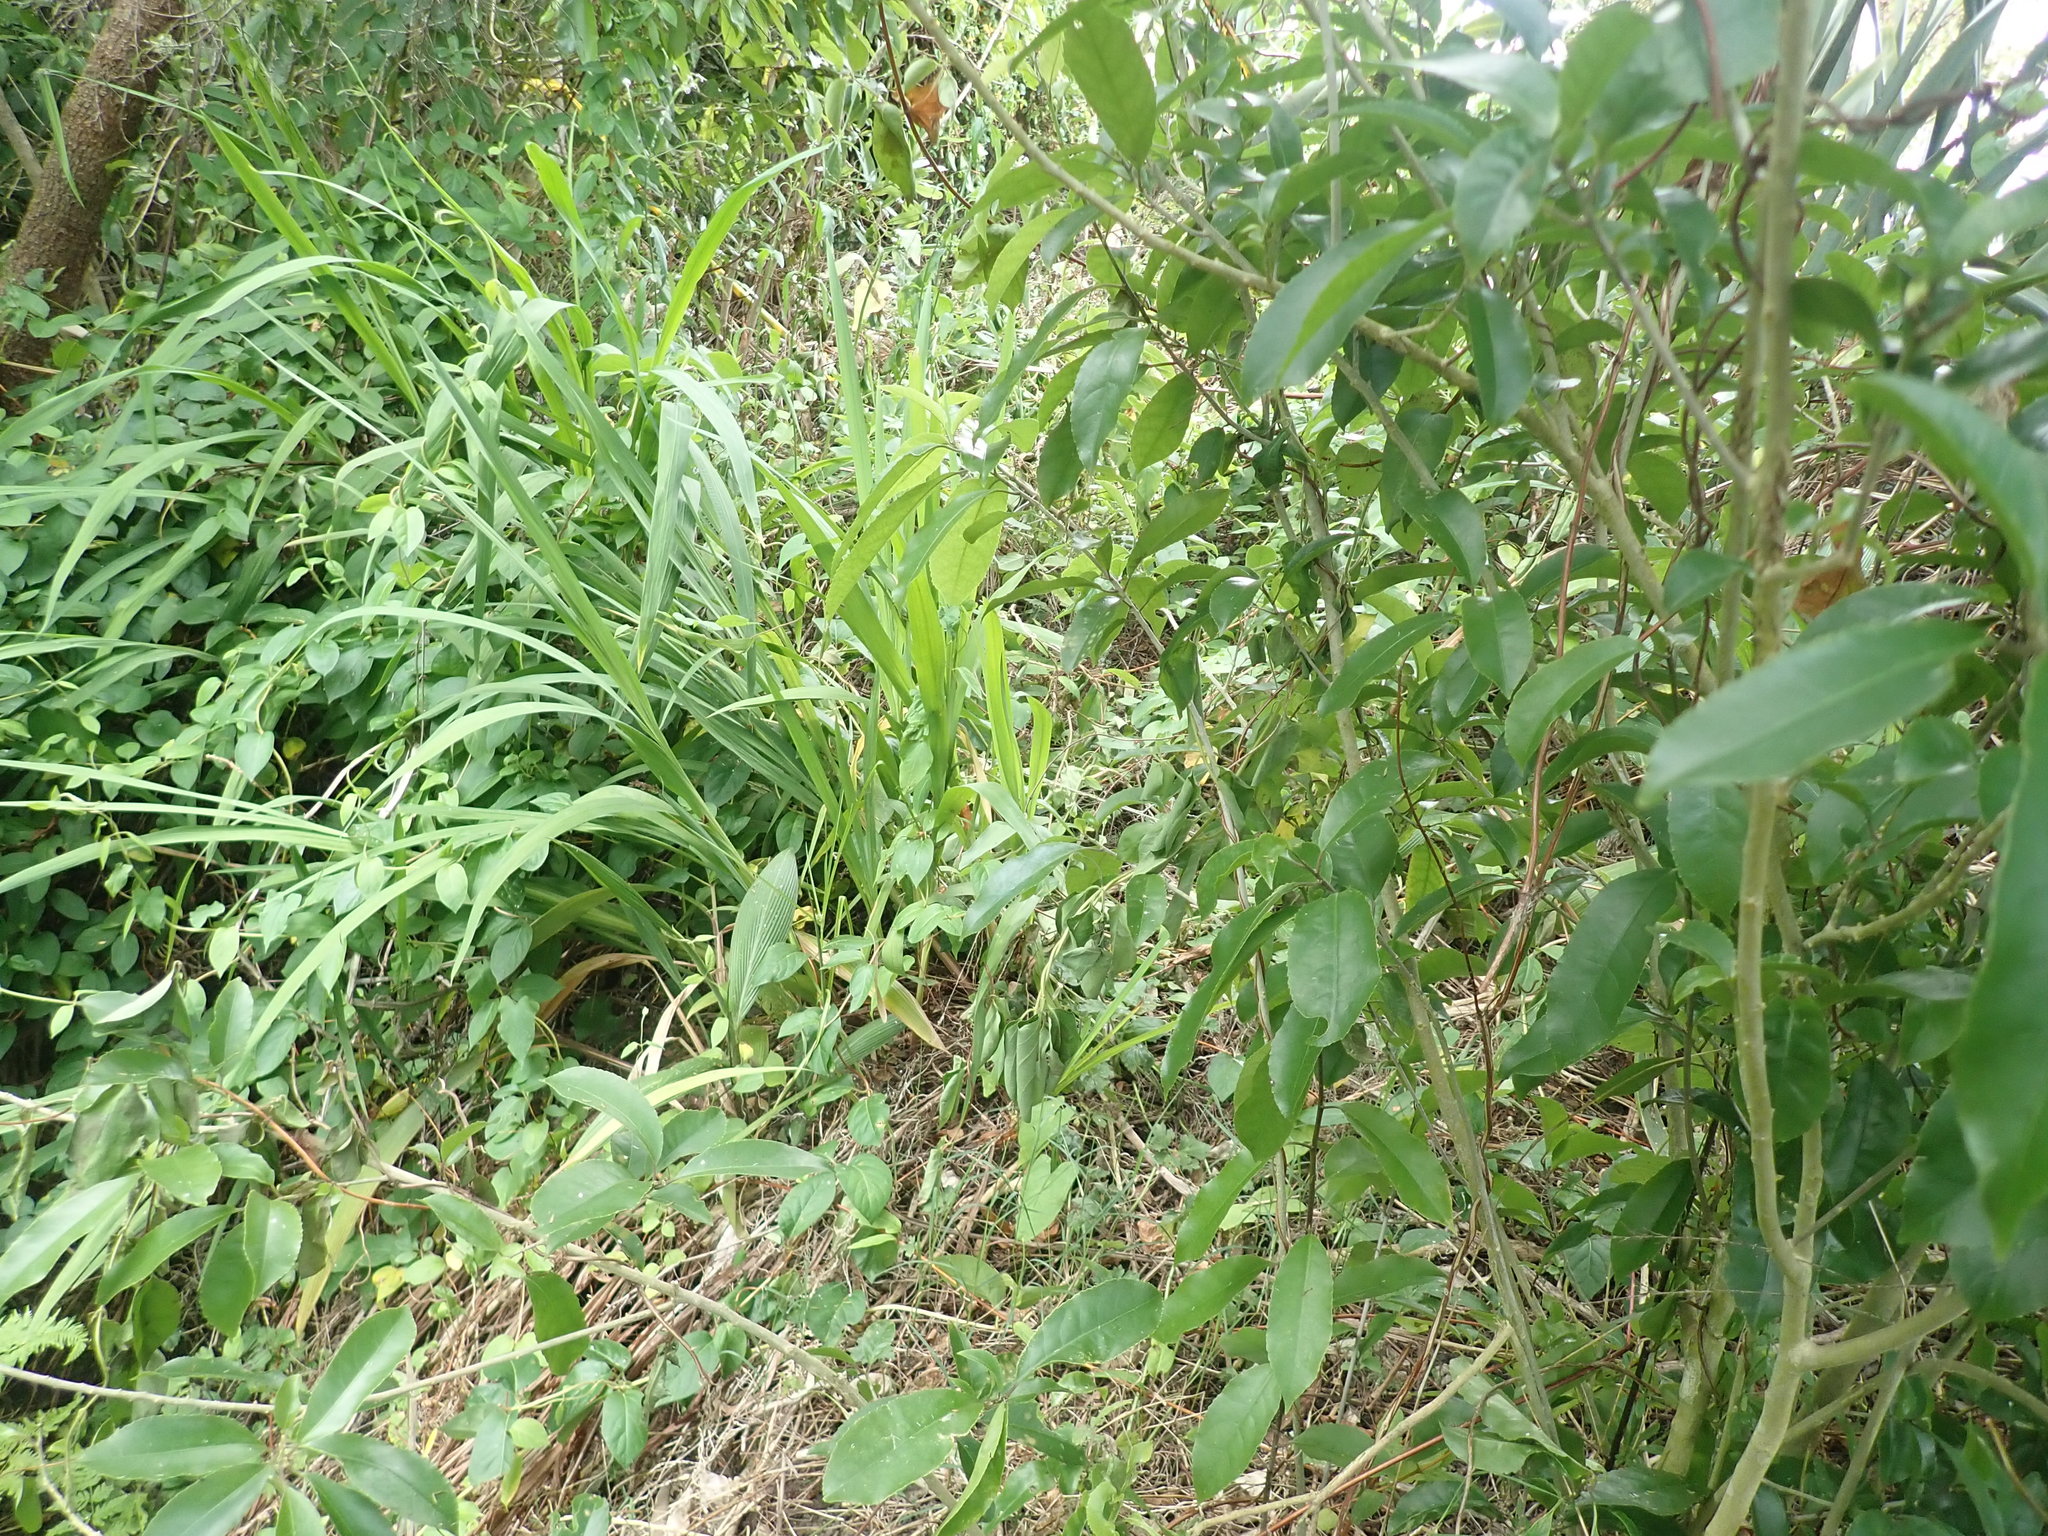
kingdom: Plantae
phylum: Tracheophyta
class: Liliopsida
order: Asparagales
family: Iridaceae
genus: Crocosmia
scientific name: Crocosmia crocosmiiflora
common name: Montbretia
